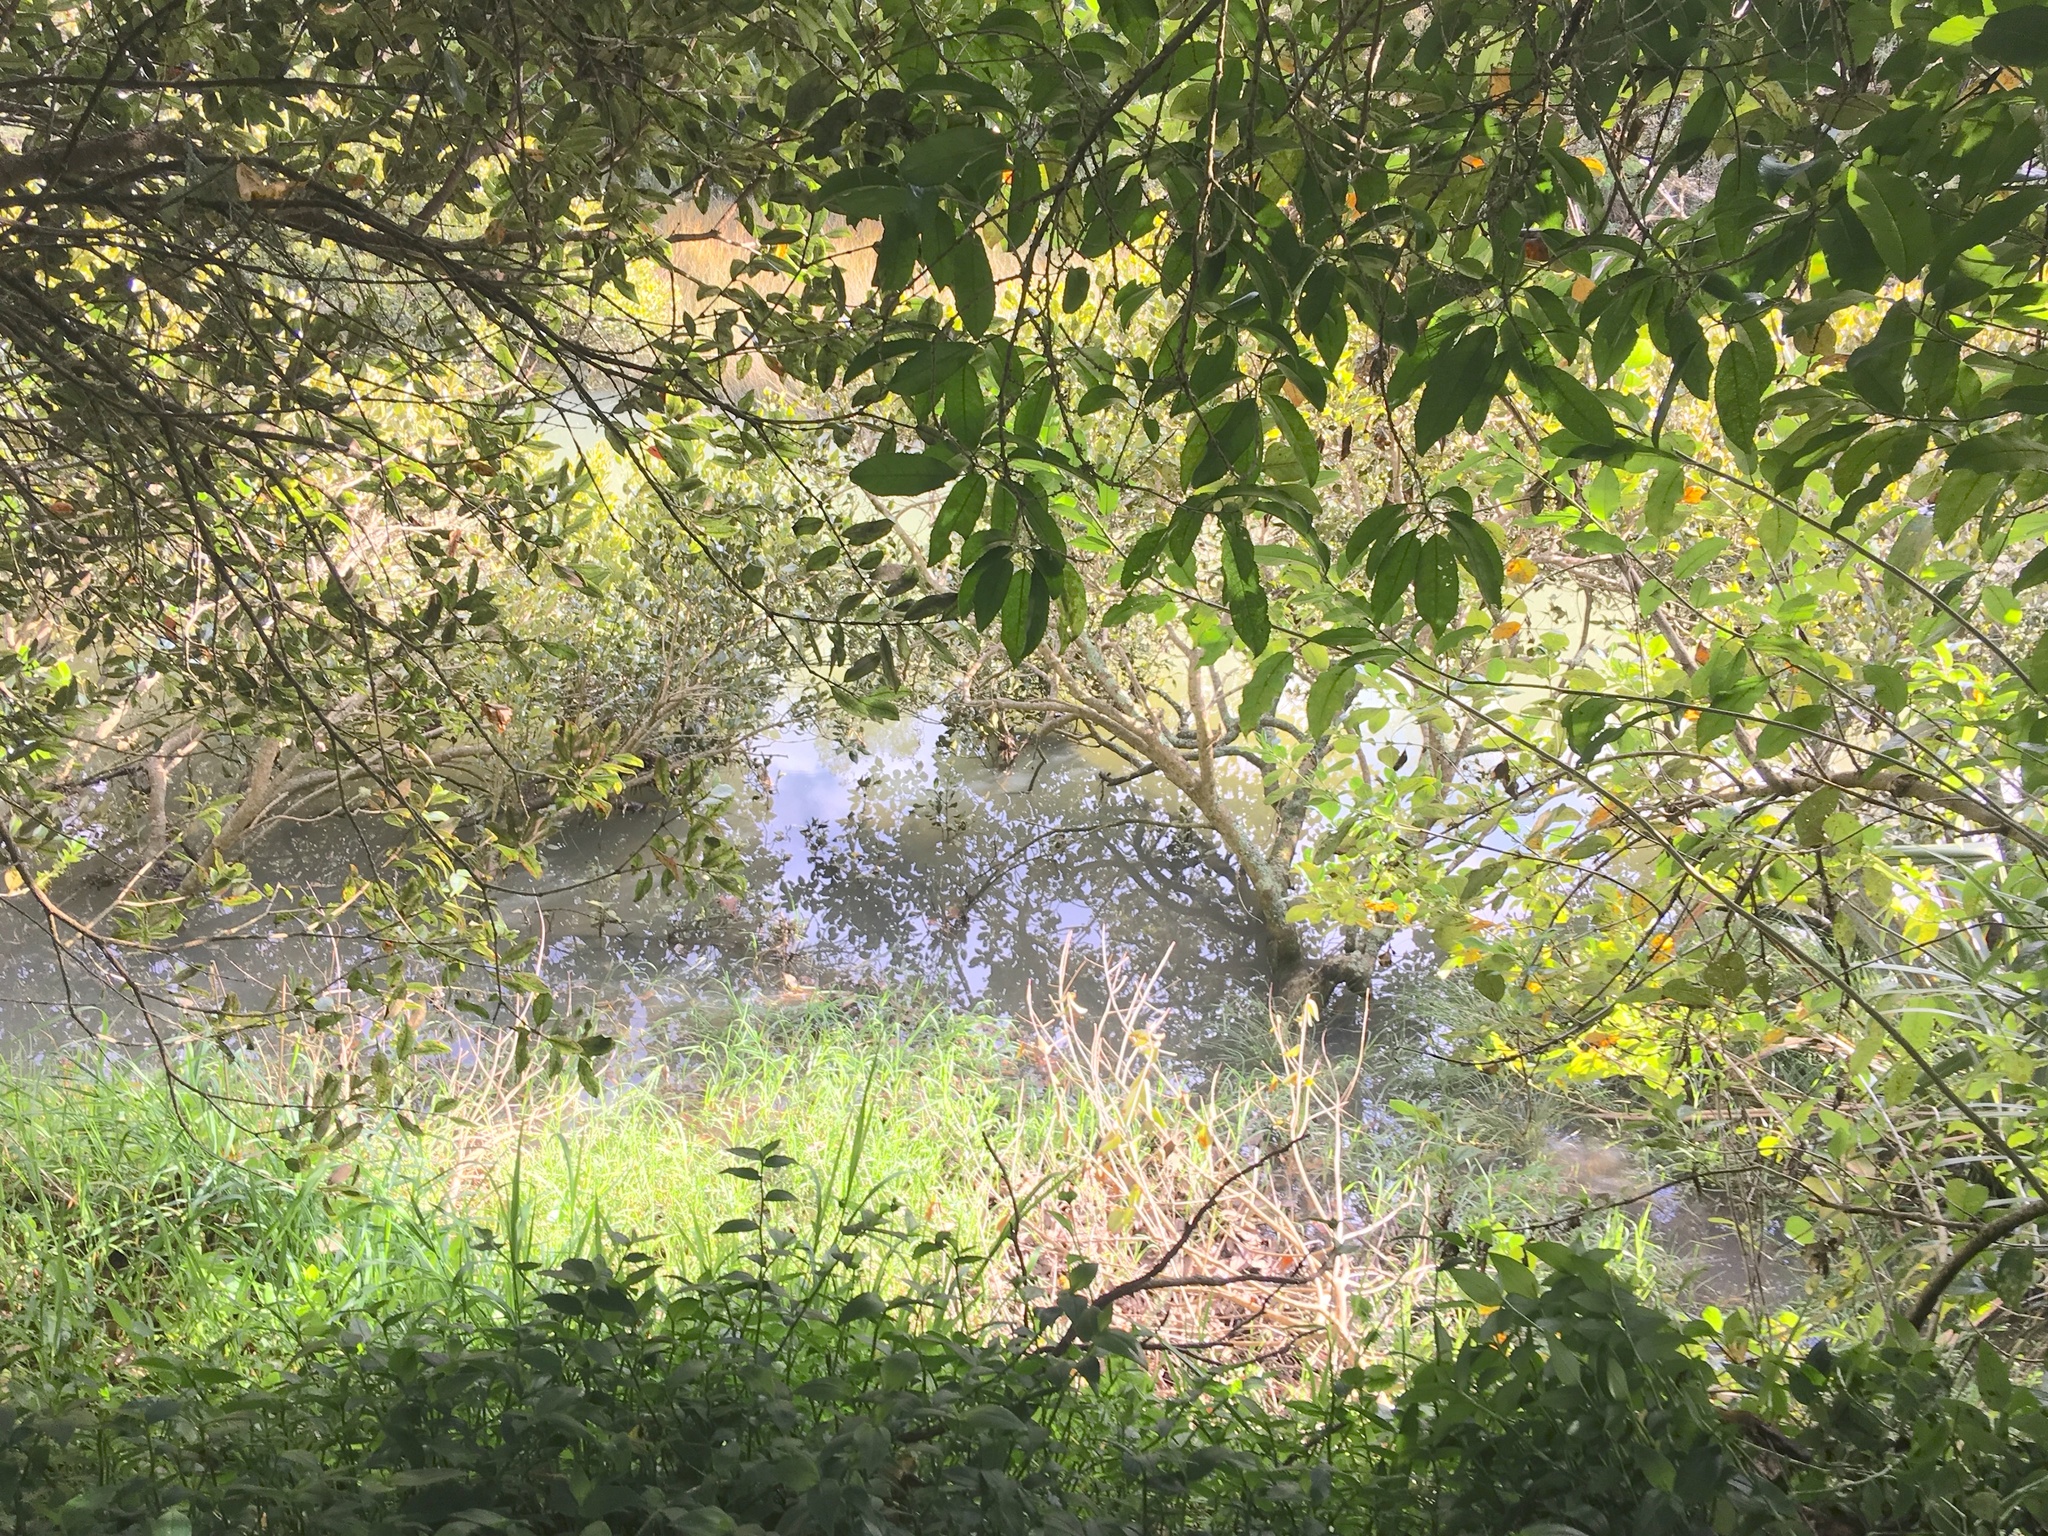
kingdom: Plantae
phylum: Tracheophyta
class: Magnoliopsida
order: Lamiales
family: Acanthaceae
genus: Avicennia
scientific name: Avicennia marina
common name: Gray mangrove
